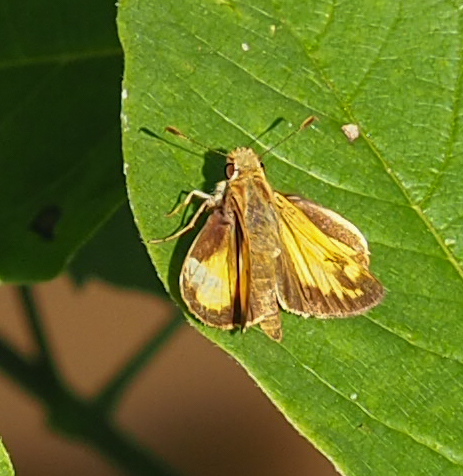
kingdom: Animalia
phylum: Arthropoda
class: Insecta
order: Lepidoptera
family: Hesperiidae
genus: Lon
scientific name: Lon zabulon
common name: Zabulon skipper
